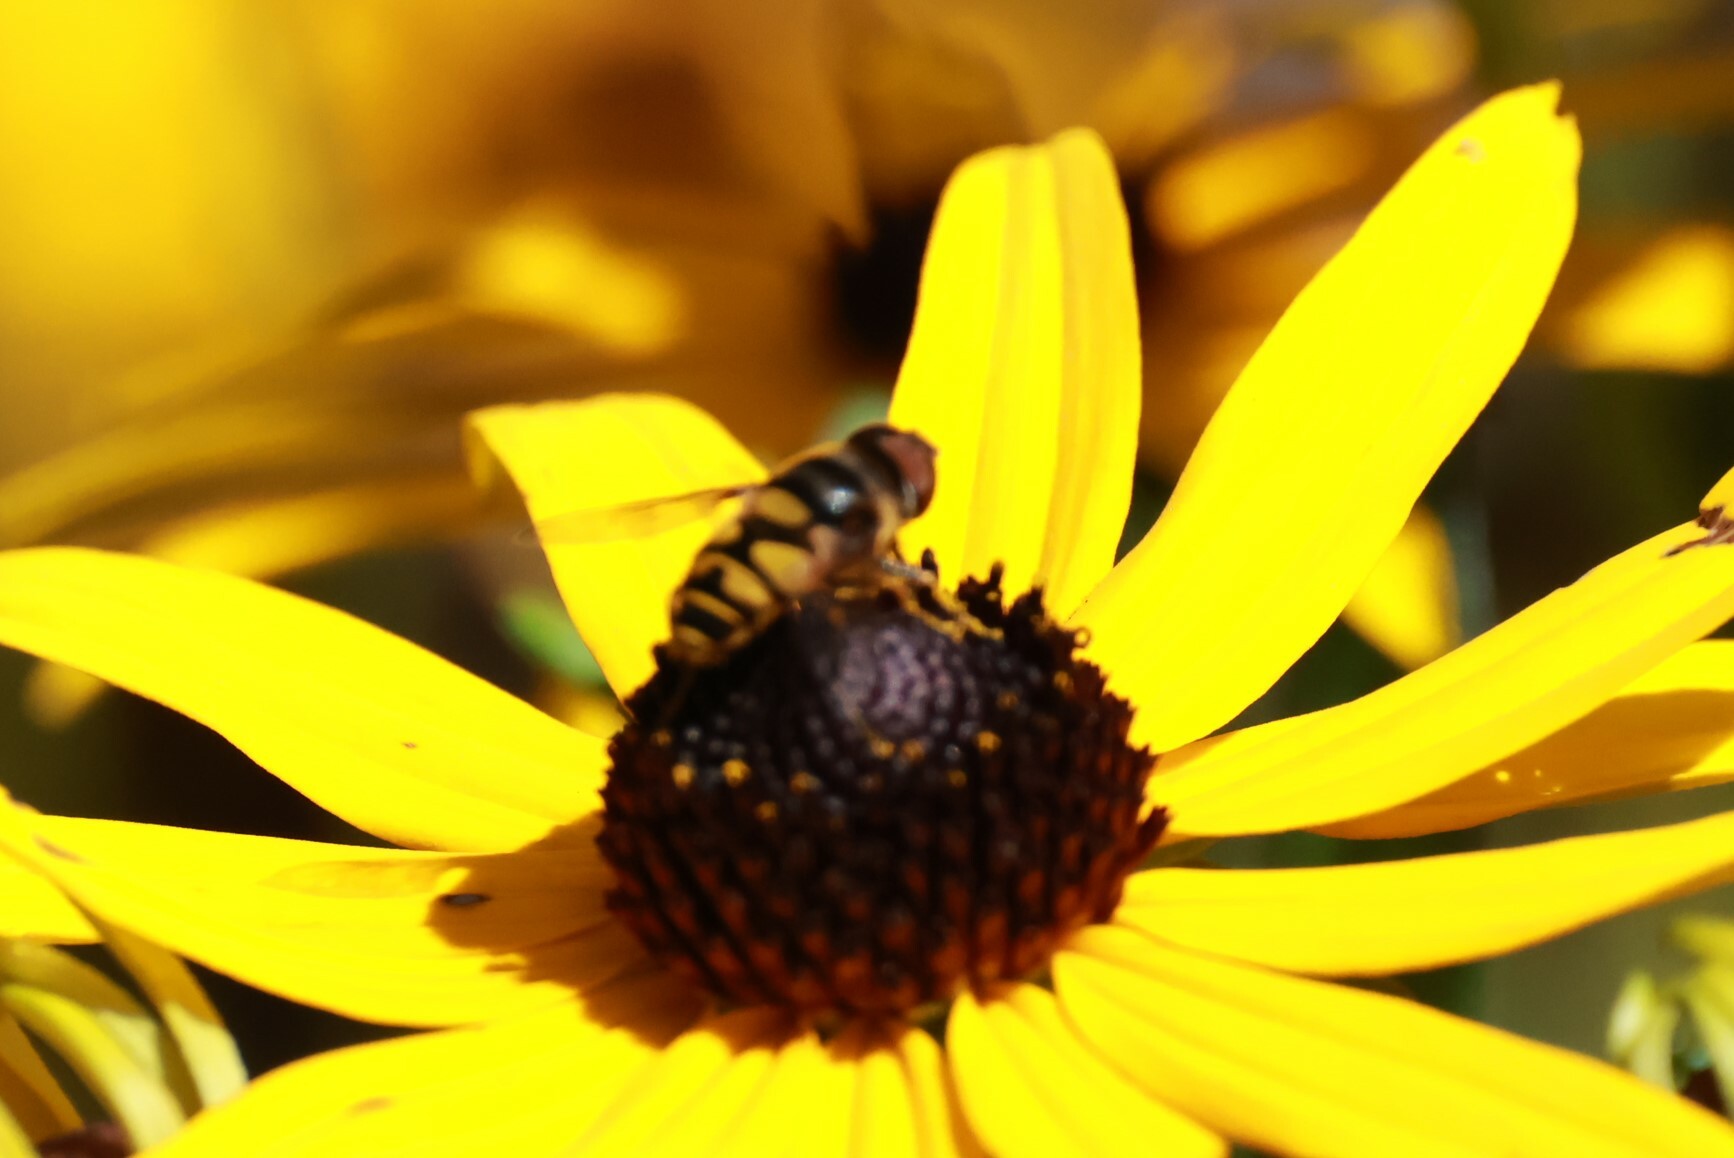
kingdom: Animalia
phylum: Arthropoda
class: Insecta
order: Diptera
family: Syrphidae
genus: Eristalis
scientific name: Eristalis transversa
